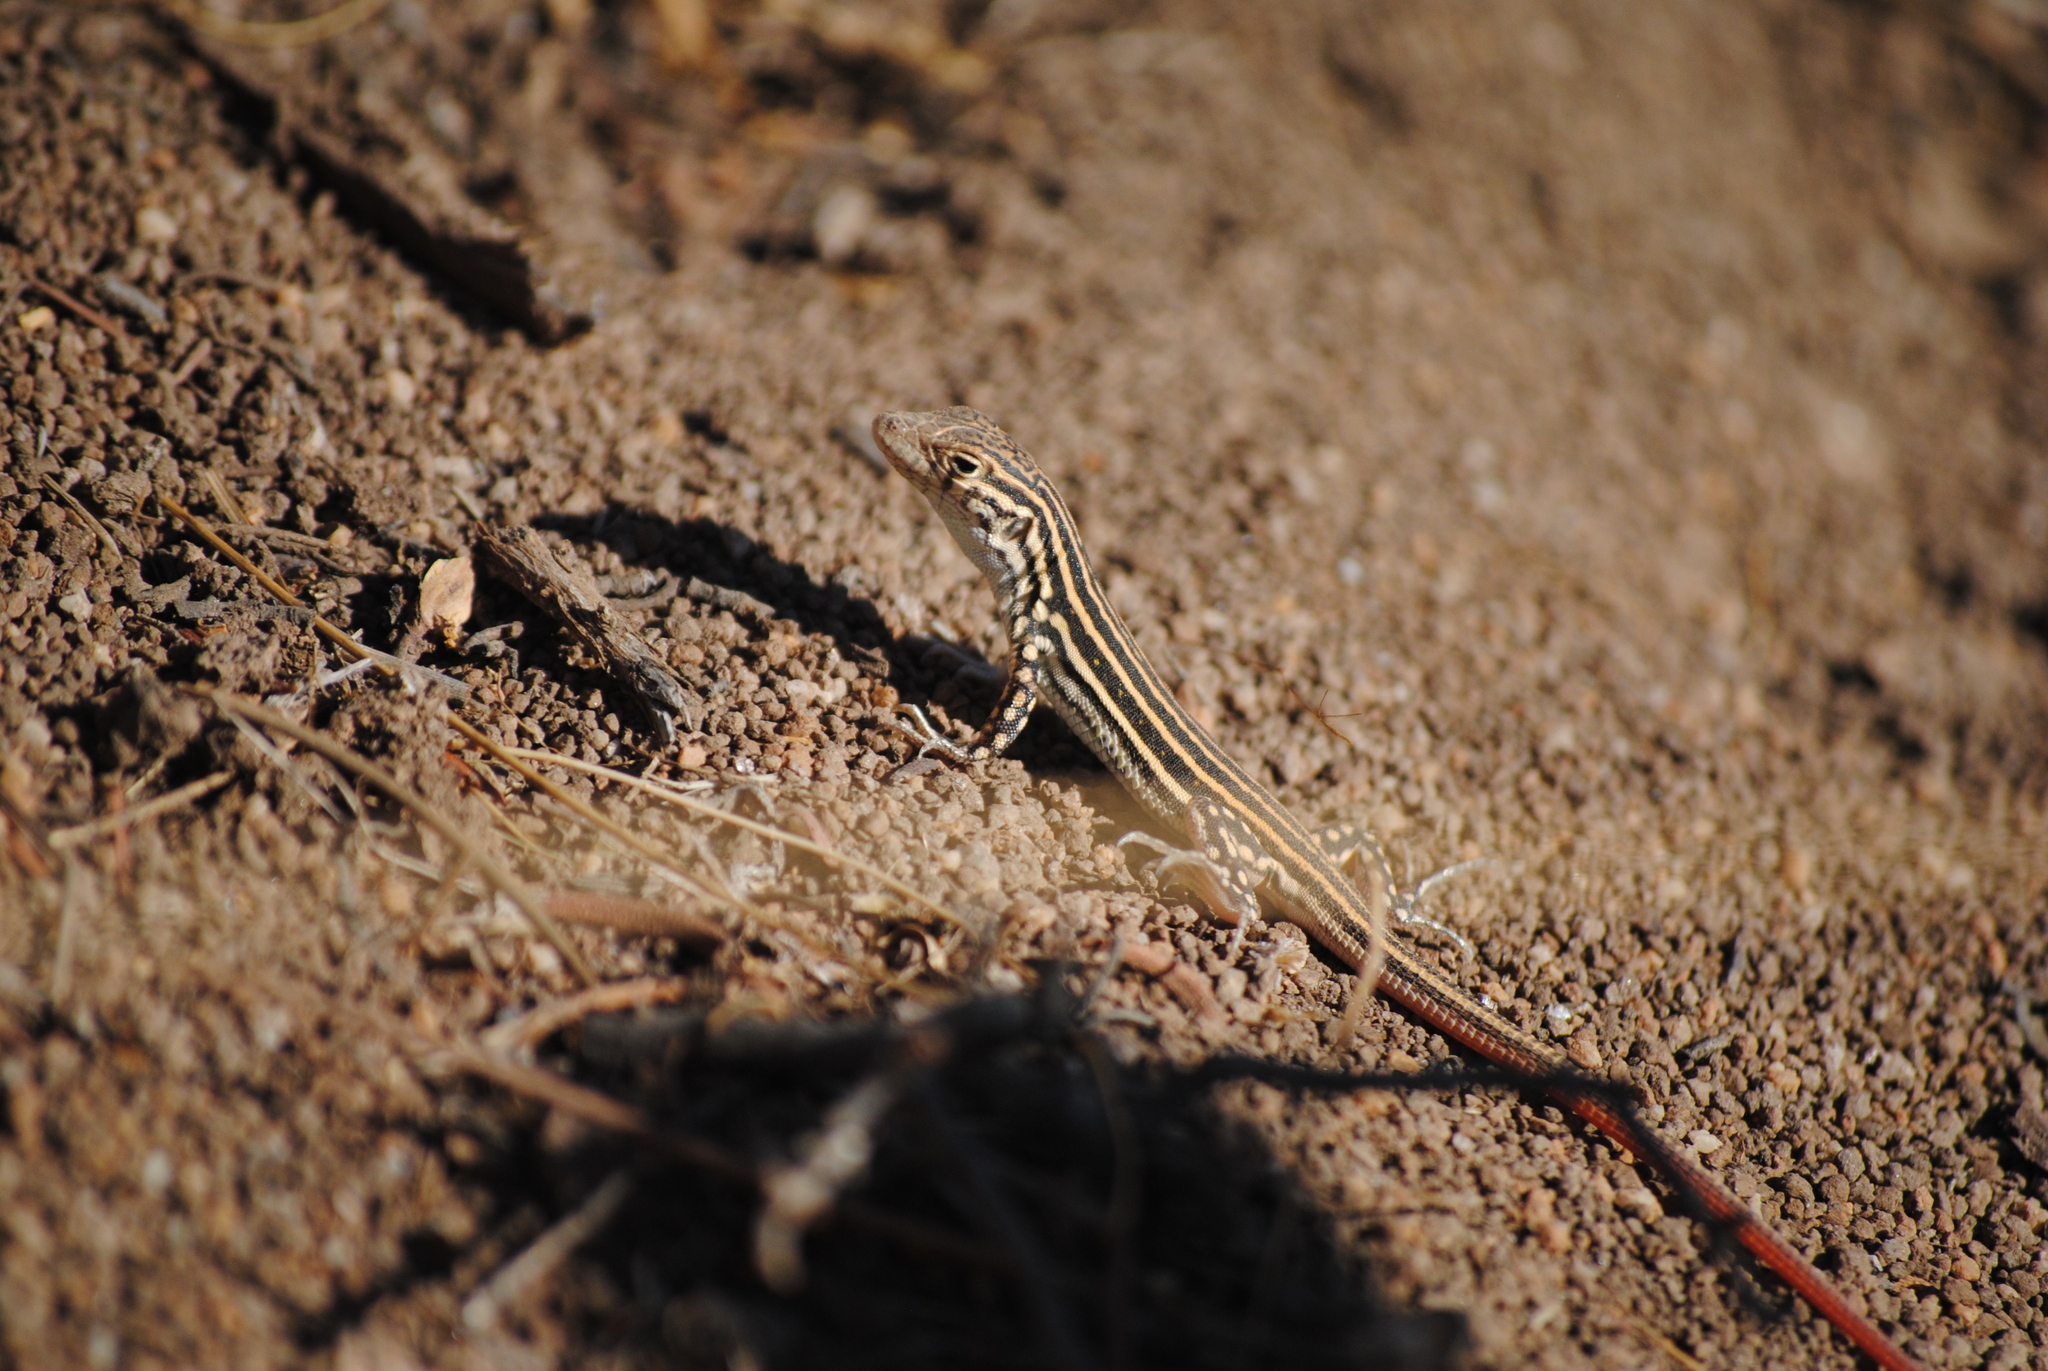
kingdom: Animalia
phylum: Chordata
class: Squamata
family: Lacertidae
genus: Acanthodactylus
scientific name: Acanthodactylus erythrurus
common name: Spiny-footed lizard
